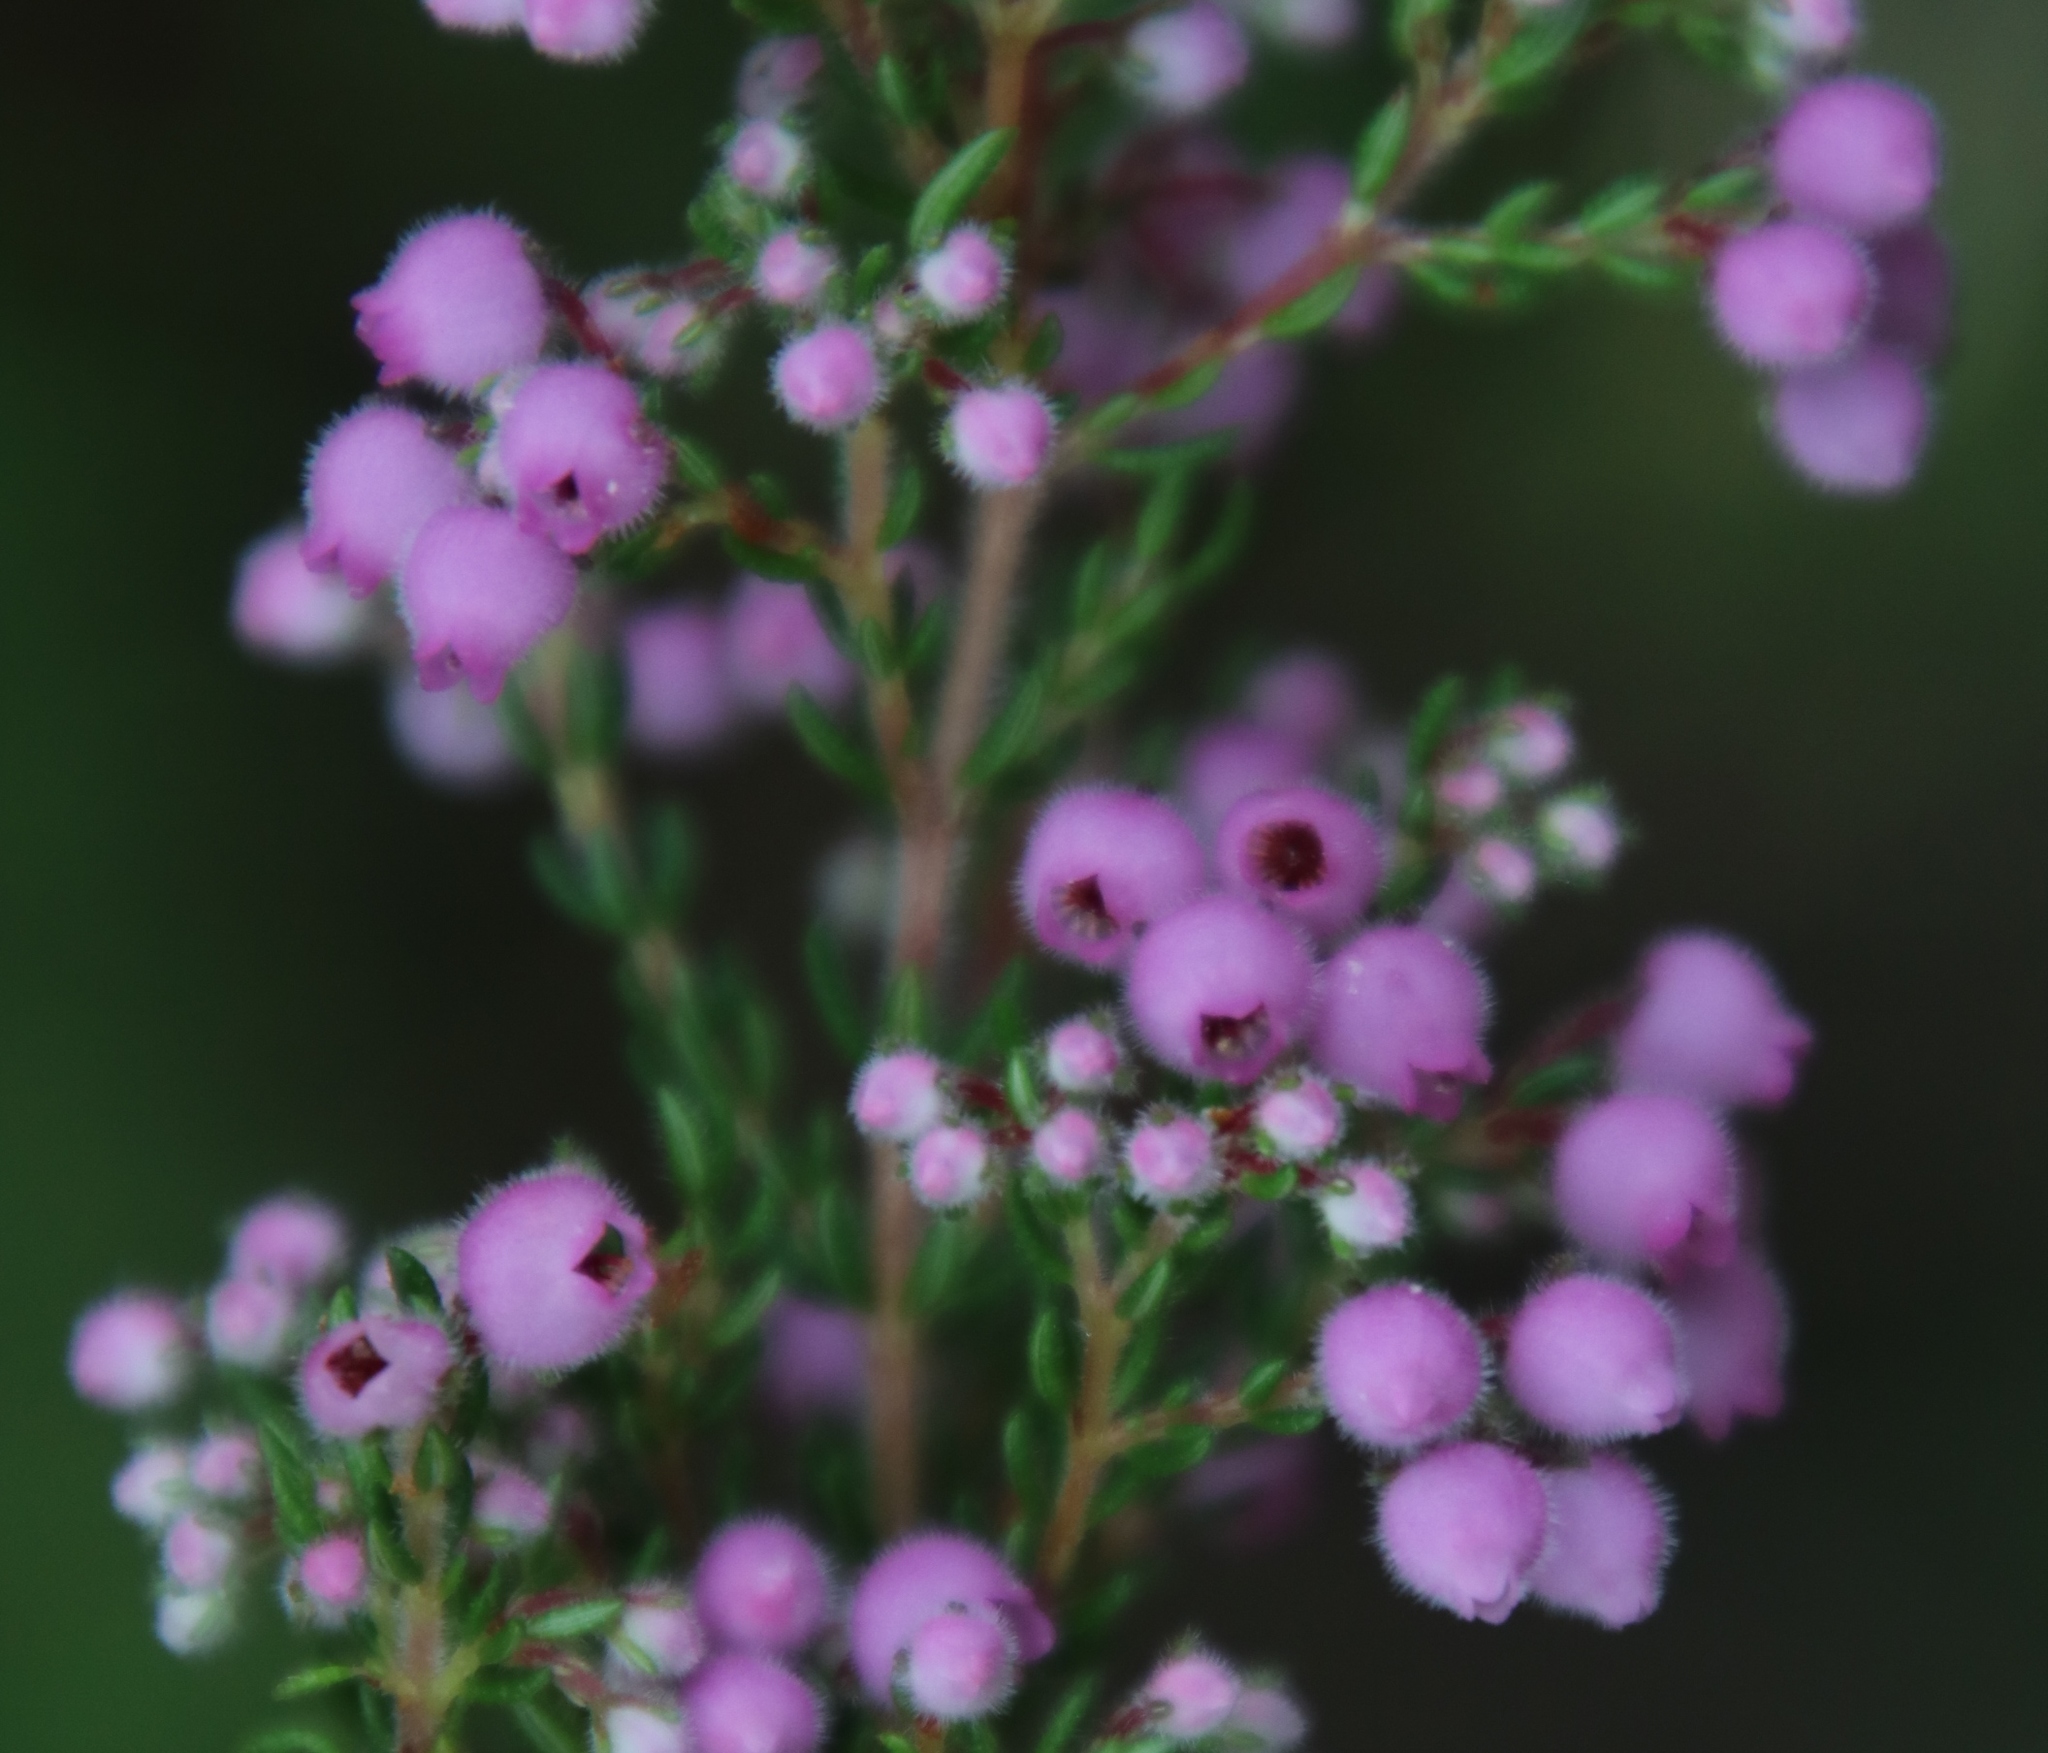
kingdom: Plantae
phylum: Tracheophyta
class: Magnoliopsida
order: Ericales
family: Ericaceae
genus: Erica
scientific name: Erica hirtiflora
